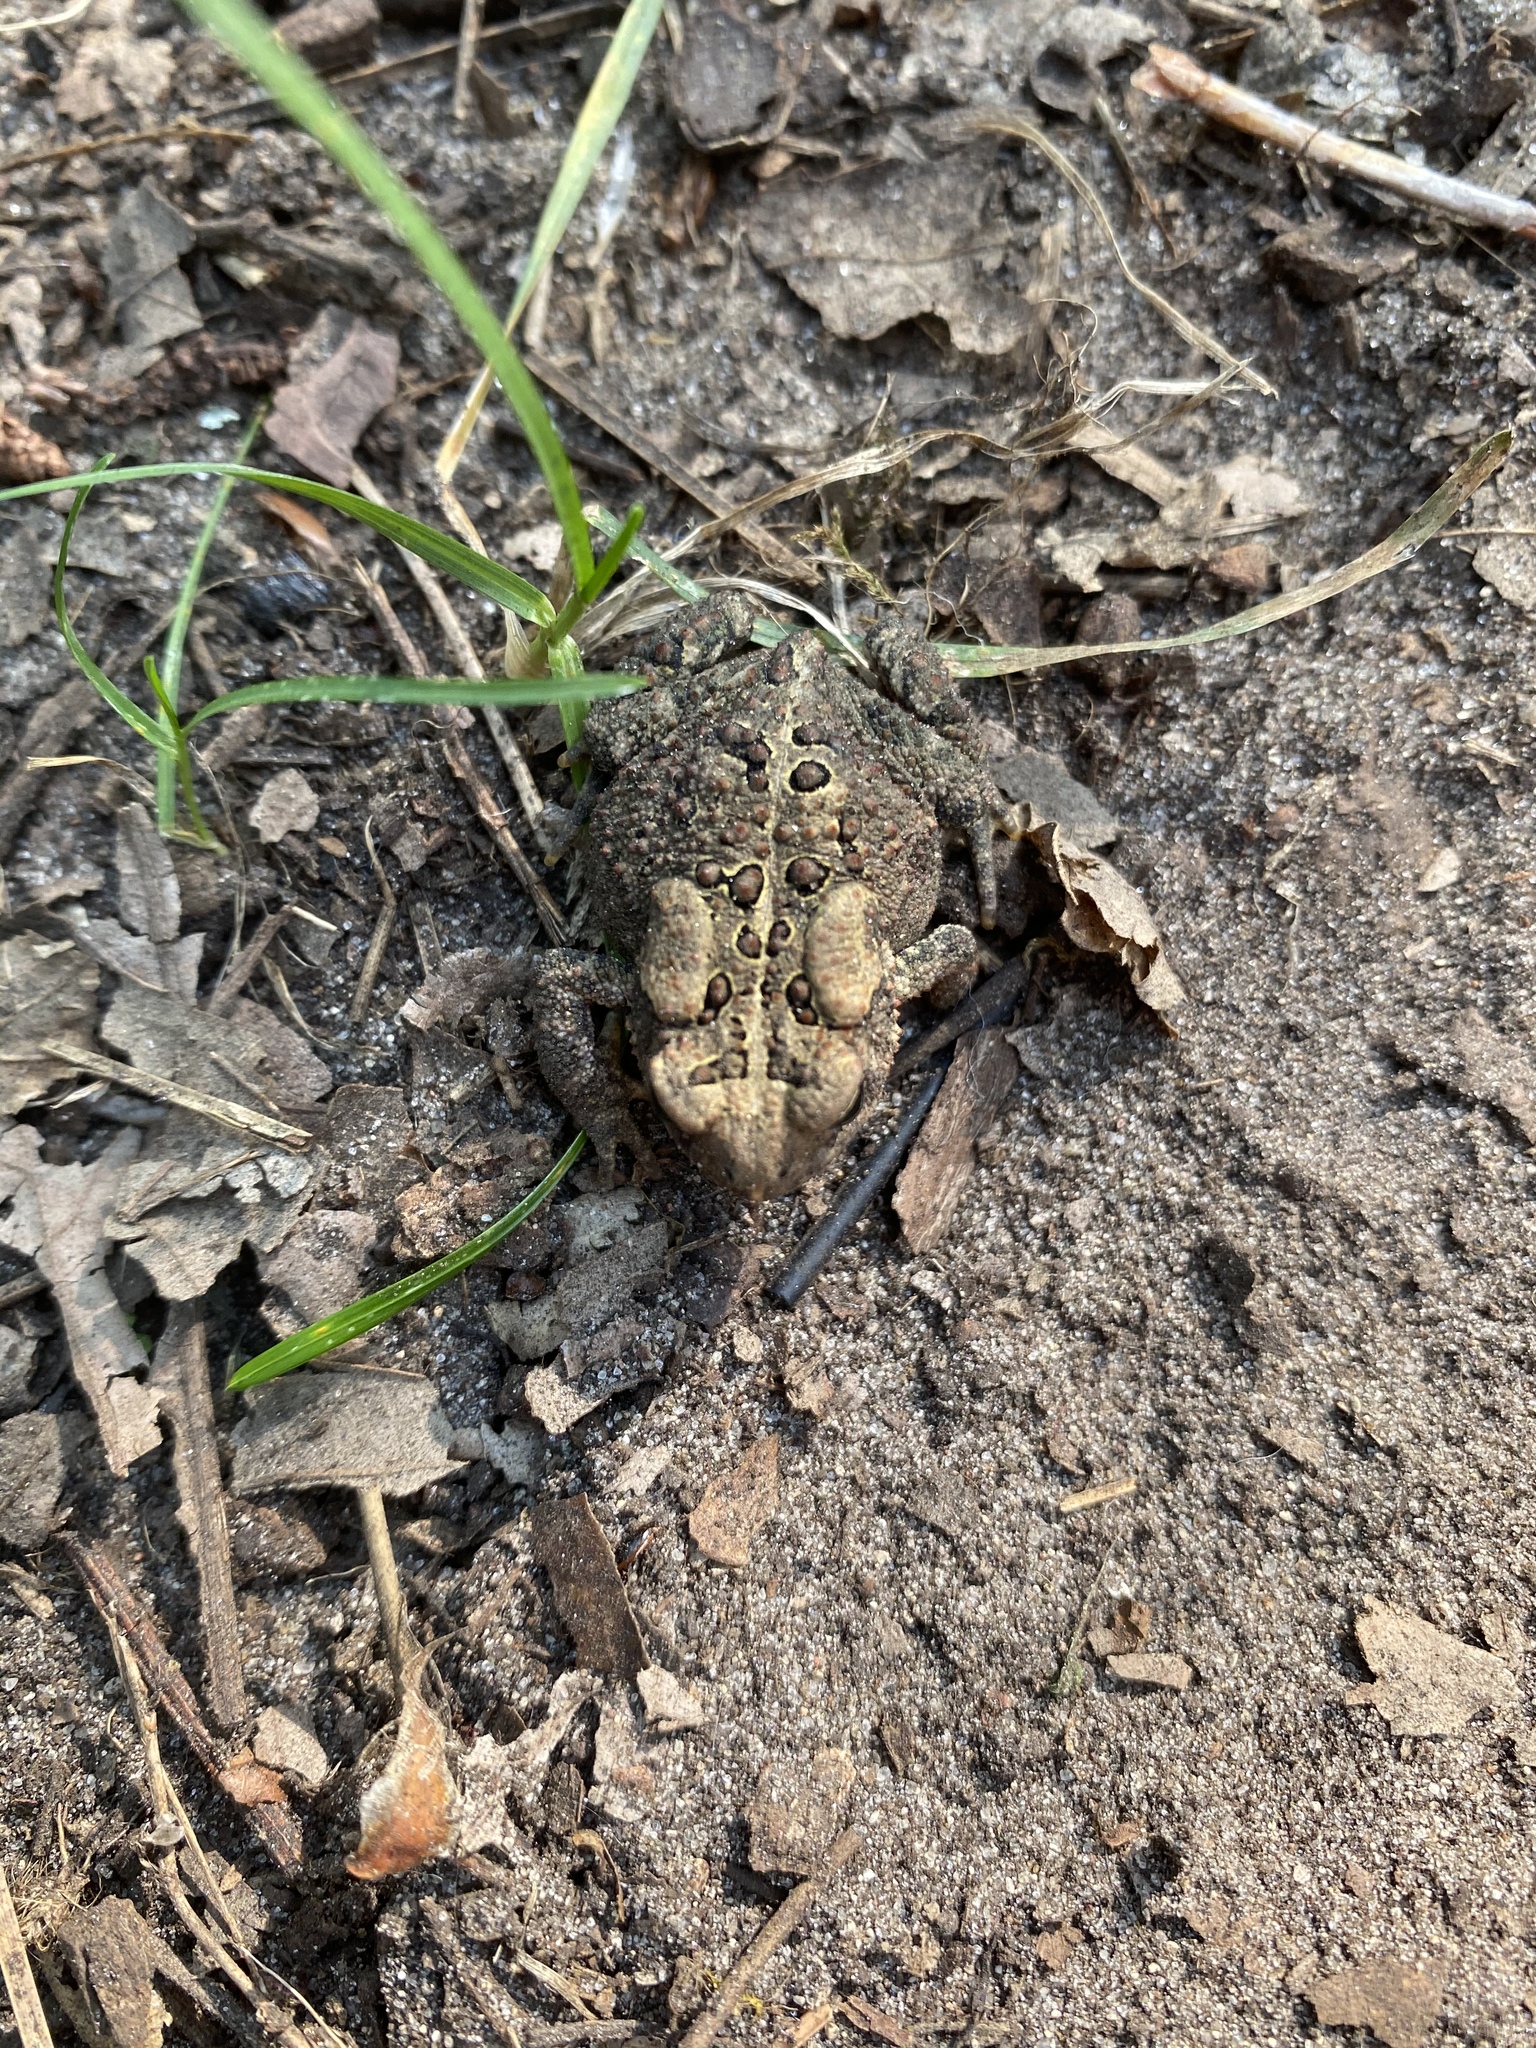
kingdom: Animalia
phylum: Chordata
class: Amphibia
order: Anura
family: Bufonidae
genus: Anaxyrus
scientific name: Anaxyrus americanus
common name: American toad
